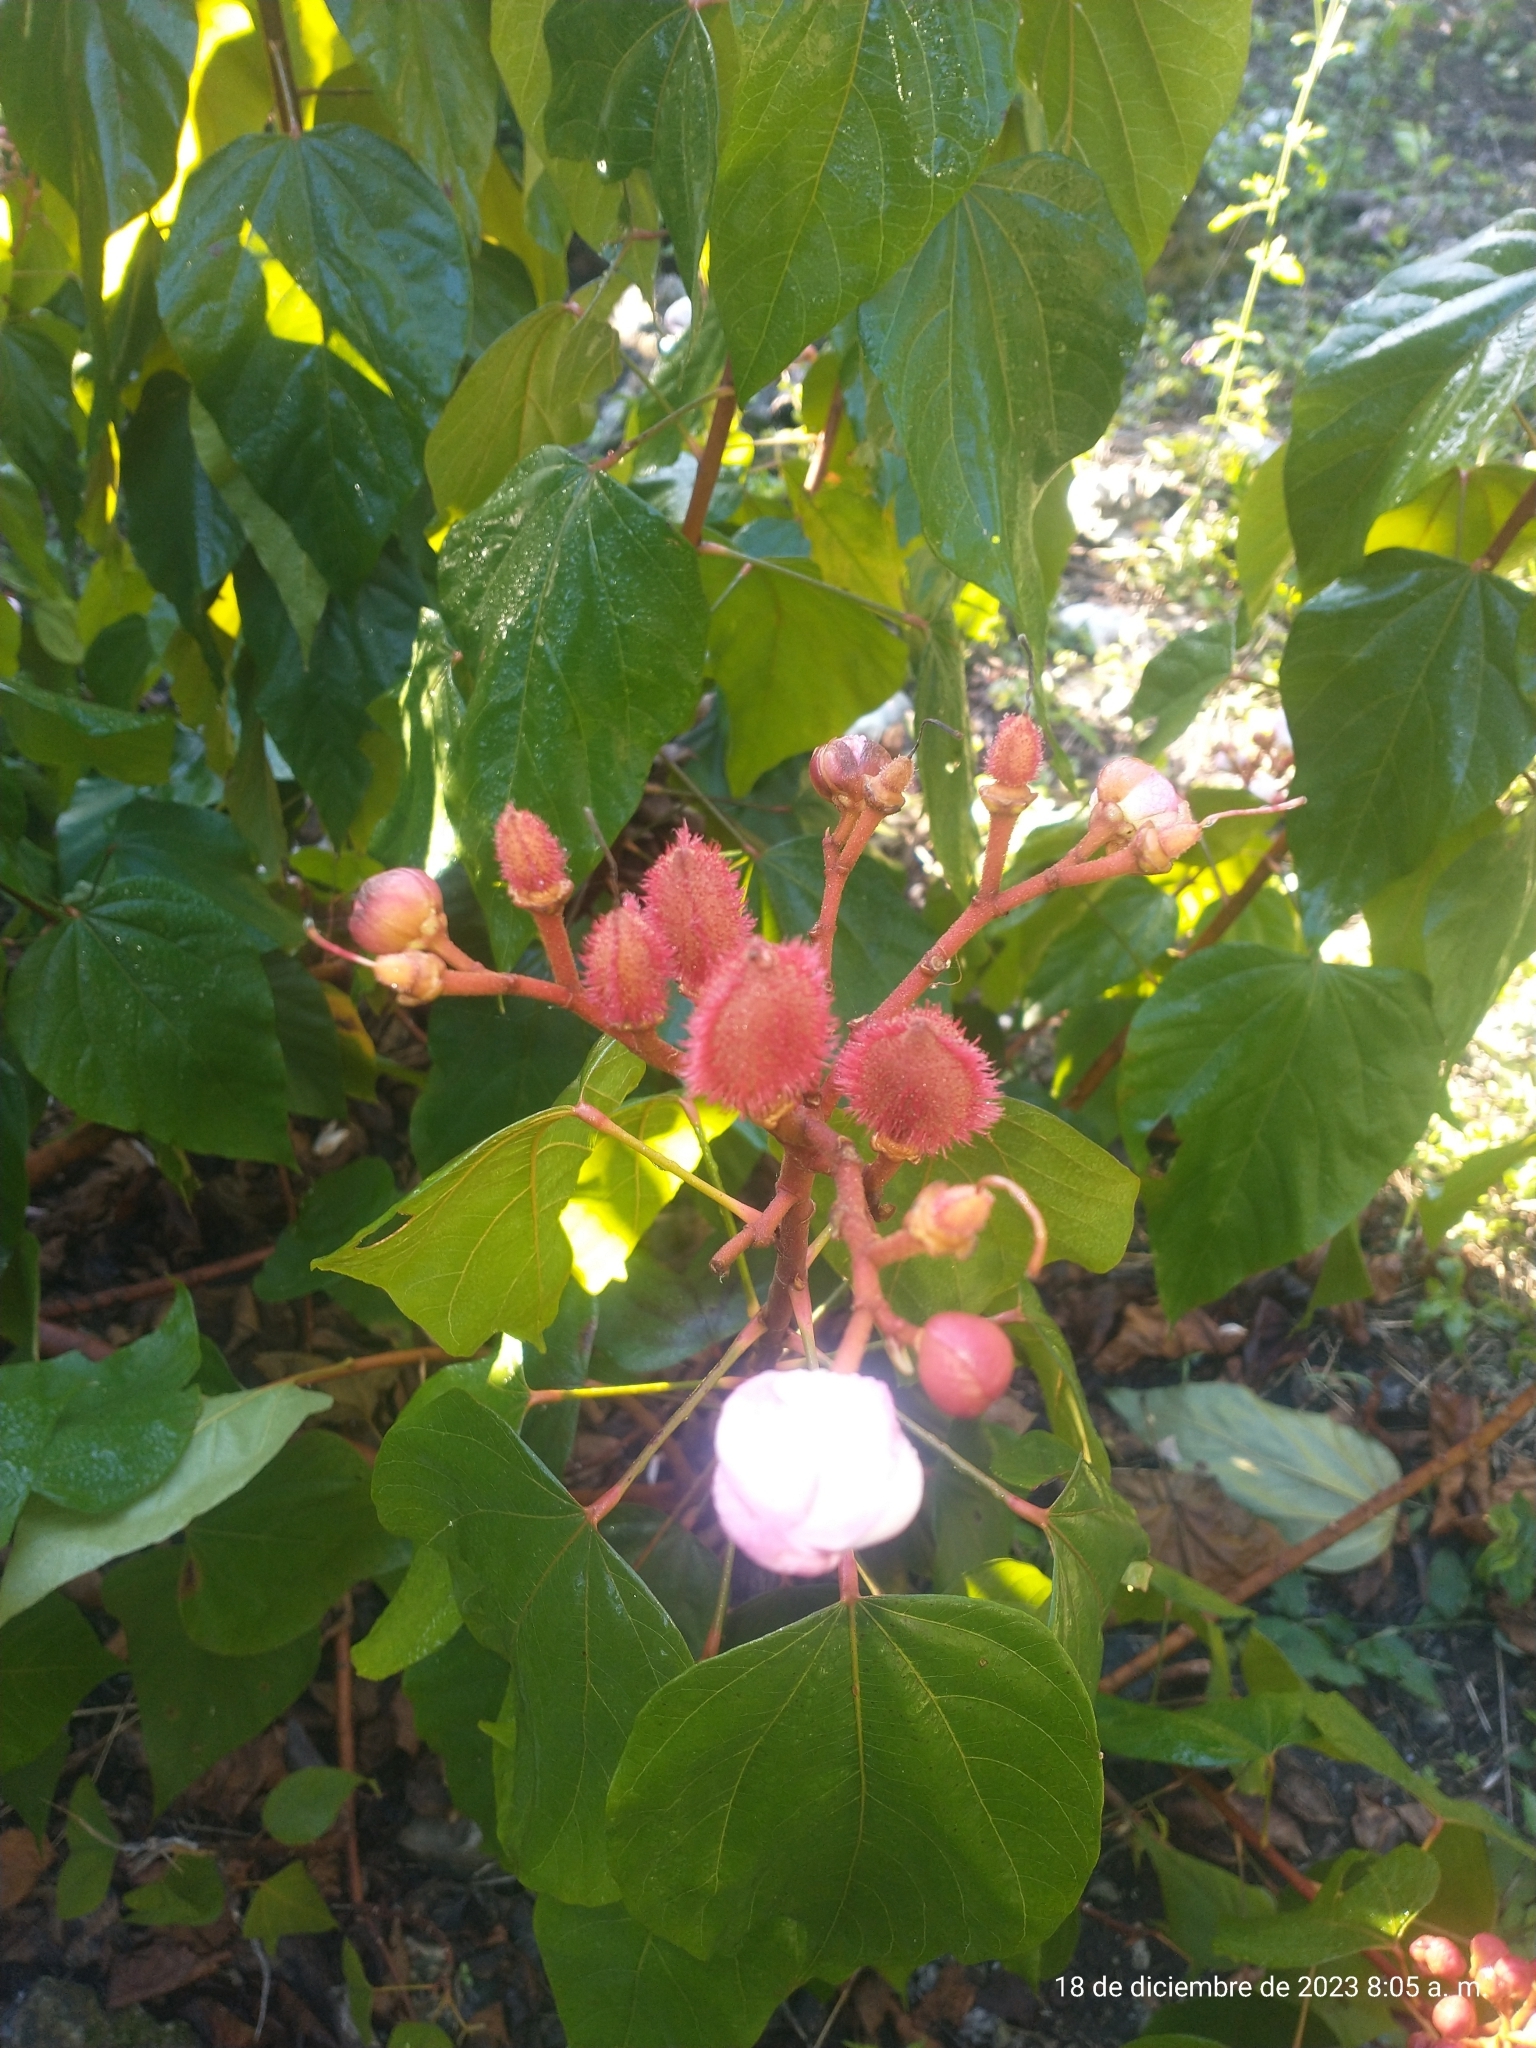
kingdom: Plantae
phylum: Tracheophyta
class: Magnoliopsida
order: Malvales
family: Bixaceae
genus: Bixa
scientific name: Bixa orellana
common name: Lipsticktree
